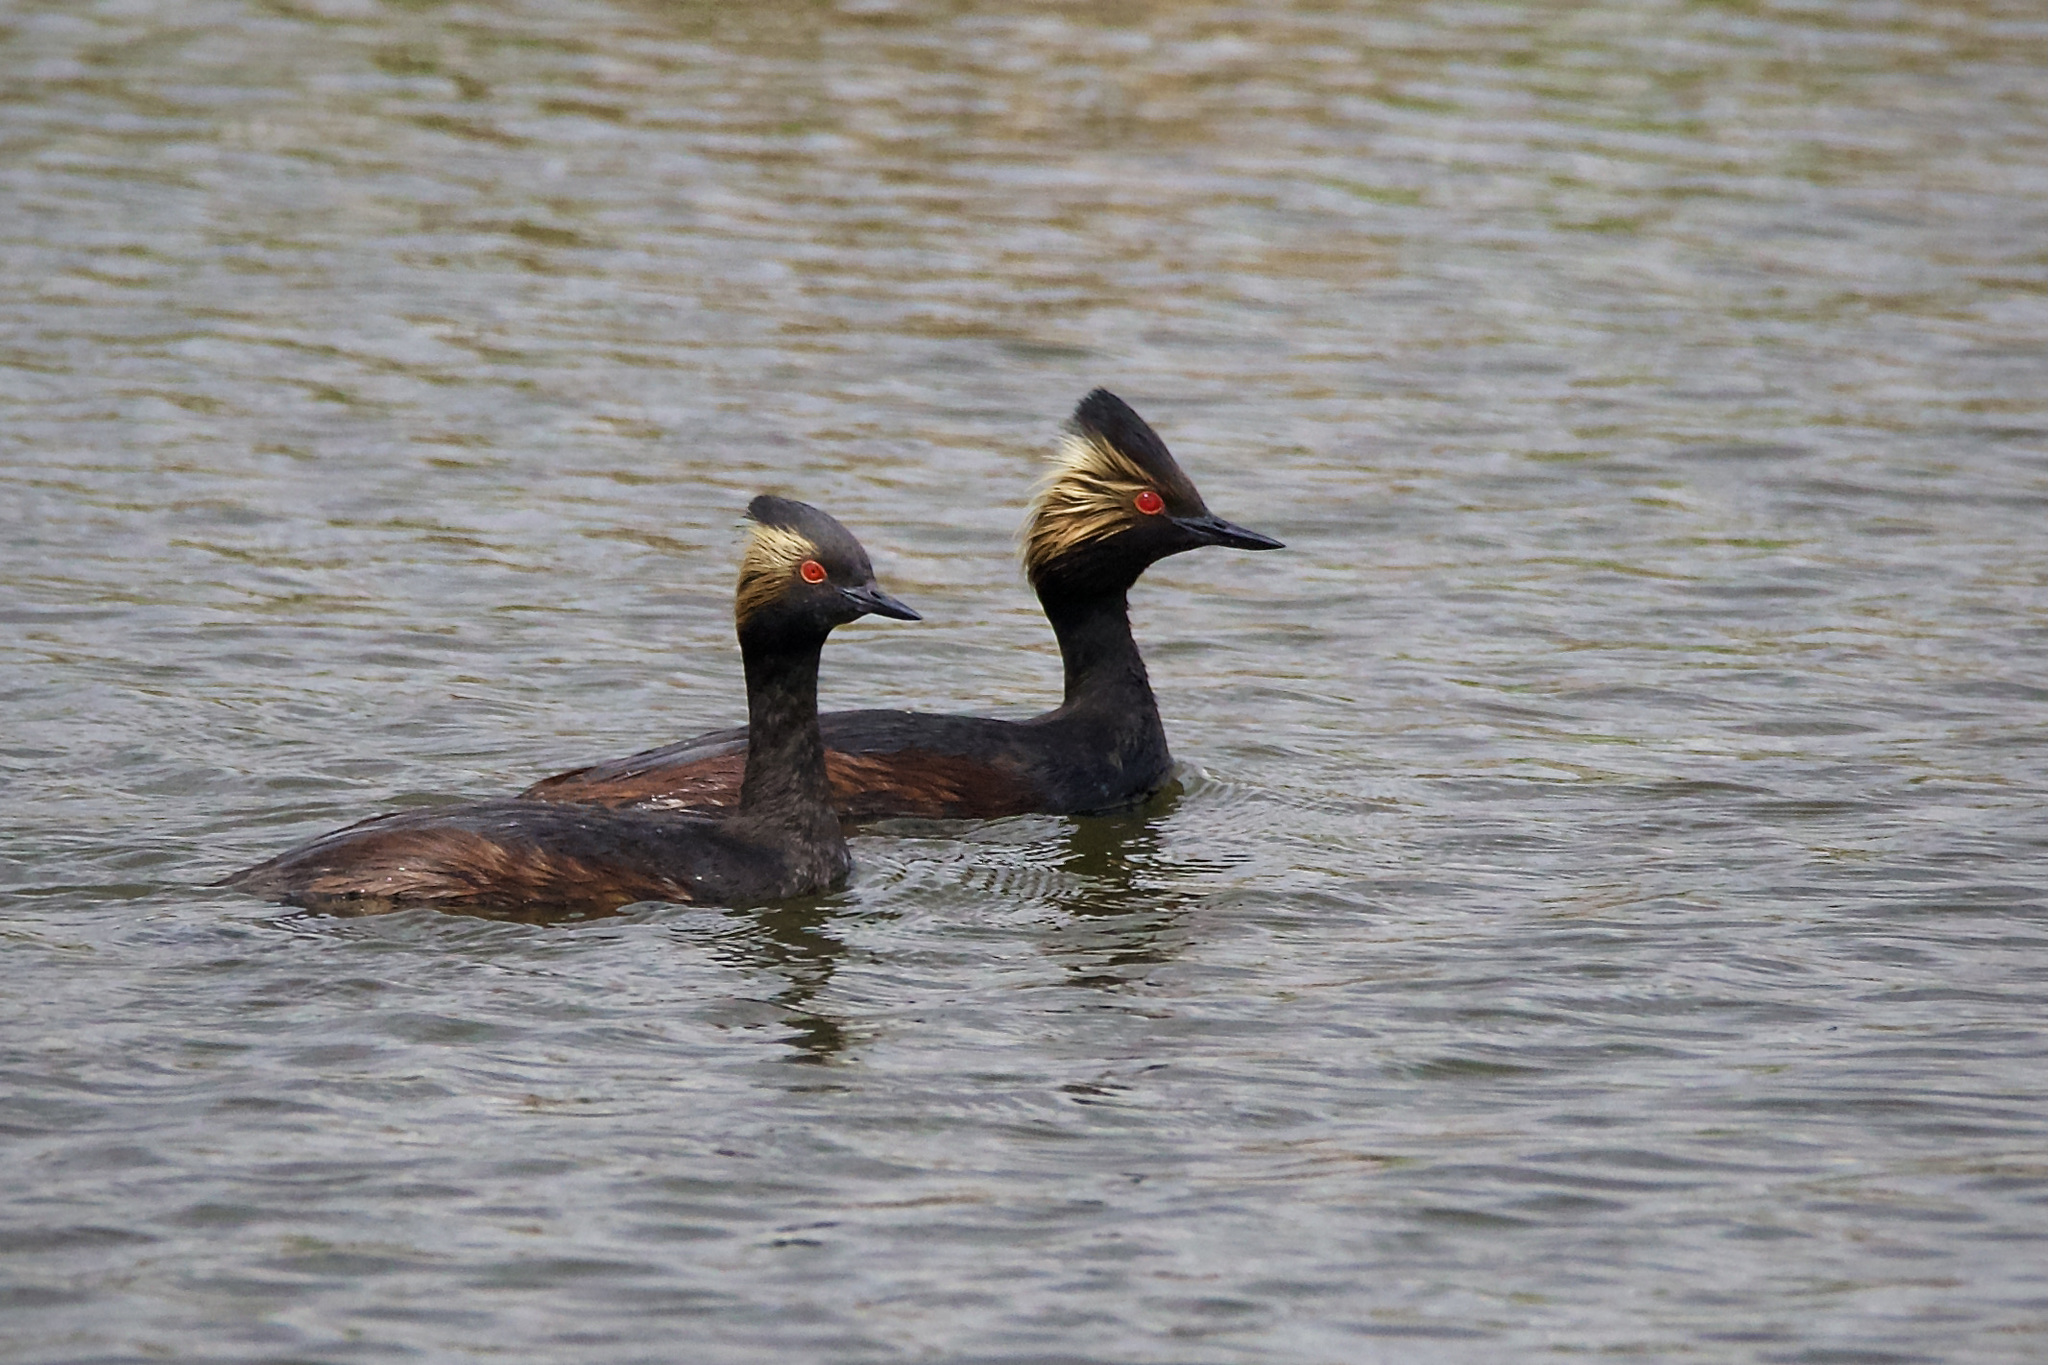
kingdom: Animalia
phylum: Chordata
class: Aves
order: Podicipediformes
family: Podicipedidae
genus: Podiceps
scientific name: Podiceps nigricollis
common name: Black-necked grebe
